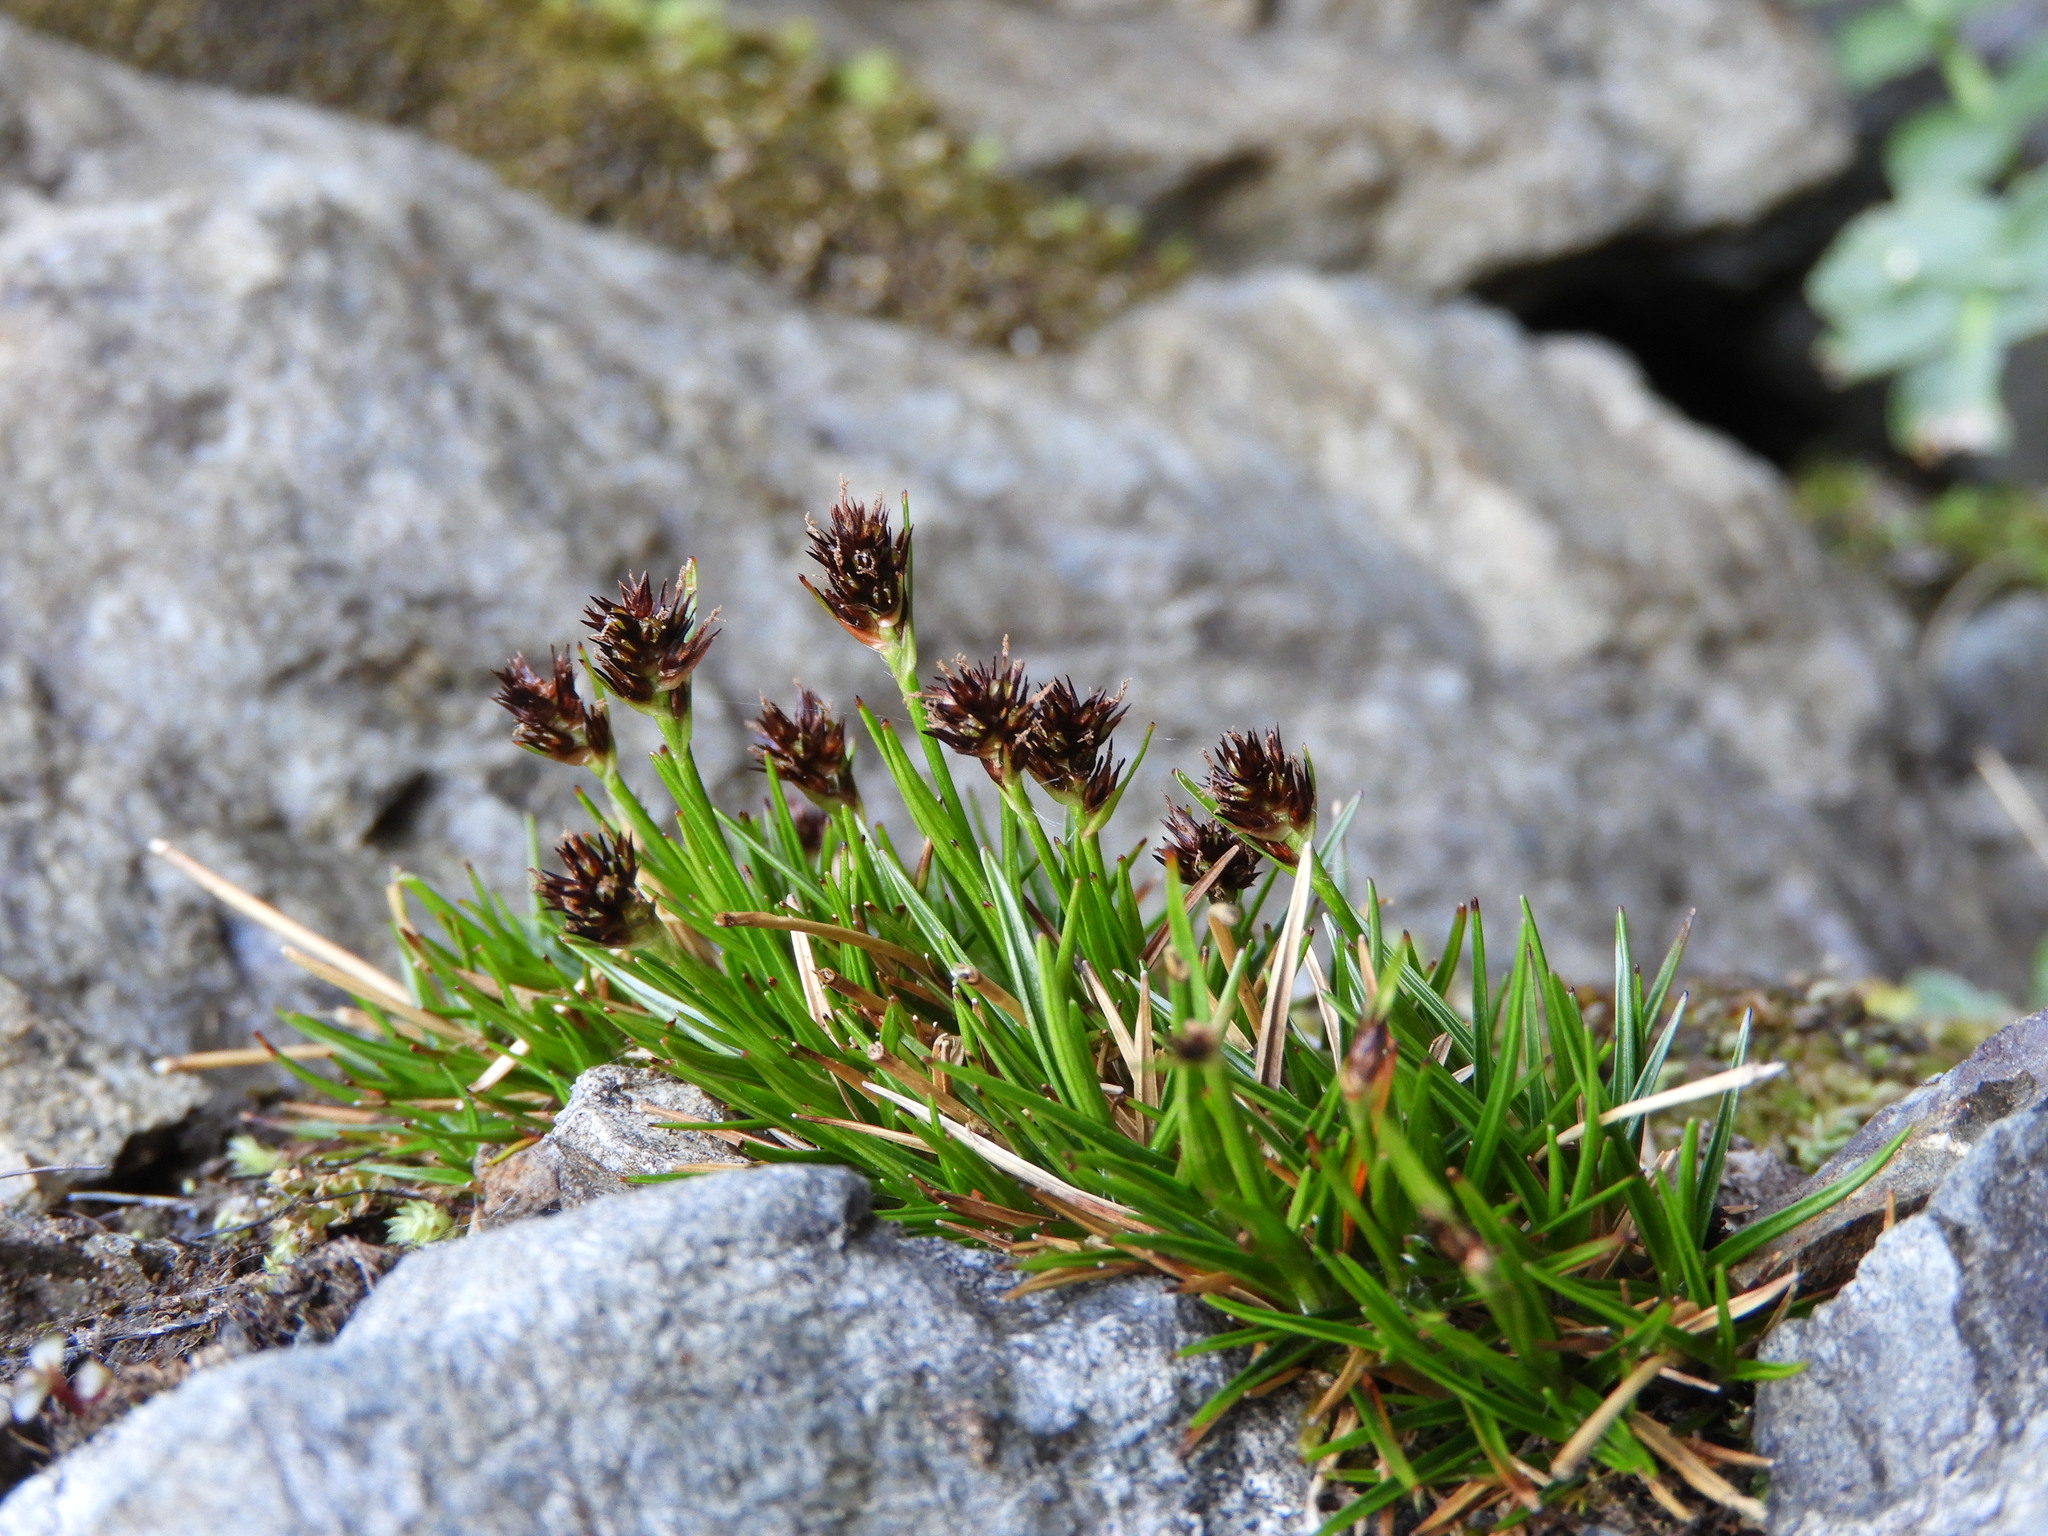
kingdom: Plantae
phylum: Tracheophyta
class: Liliopsida
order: Poales
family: Juncaceae
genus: Luzula
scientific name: Luzula pumila
